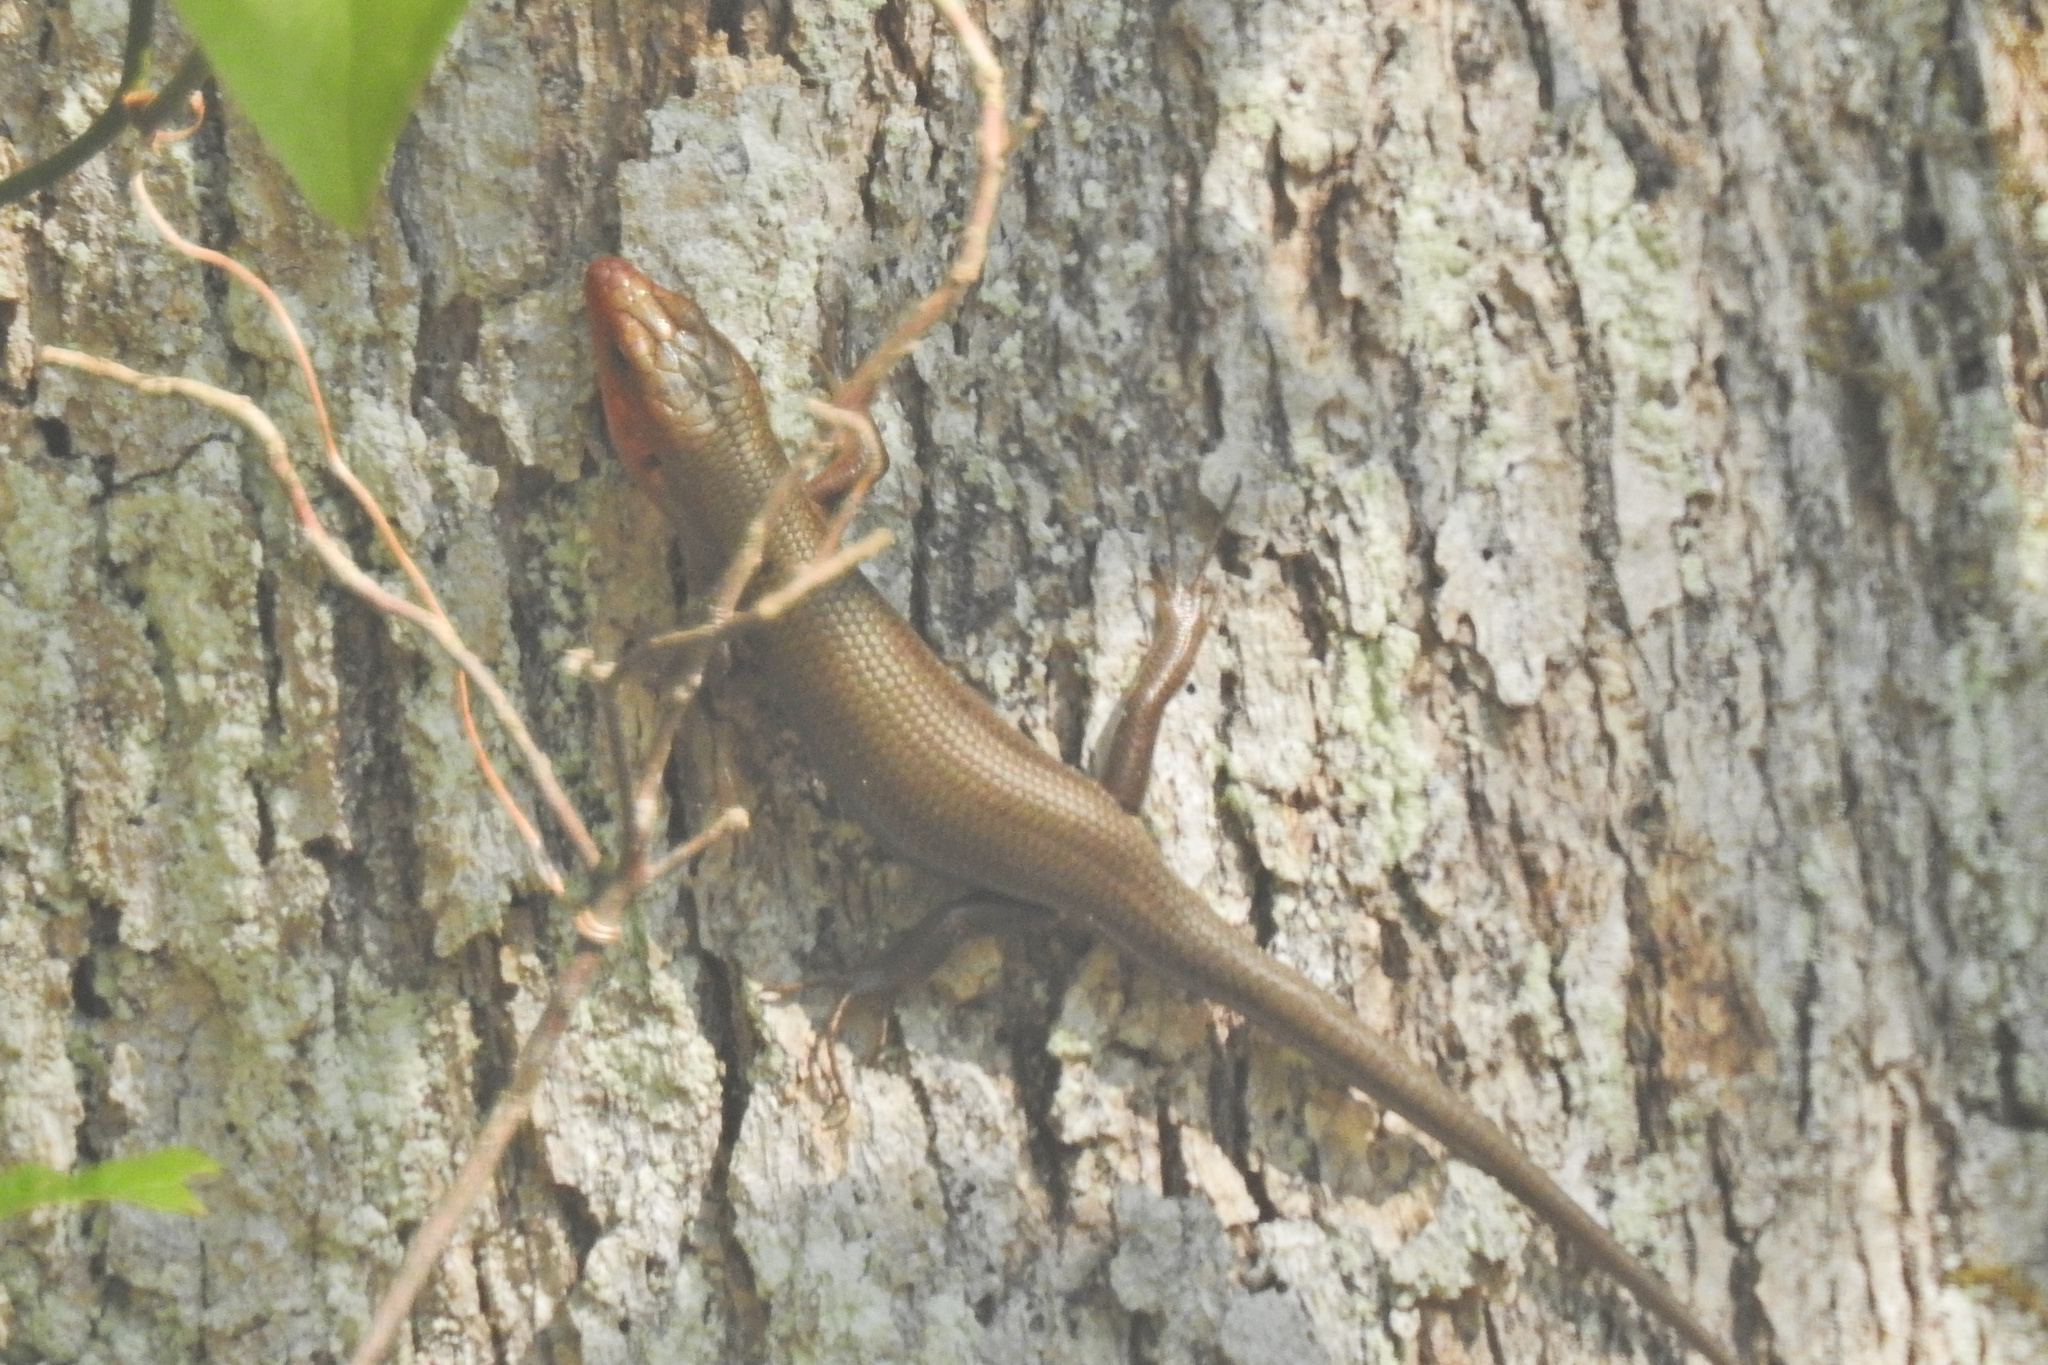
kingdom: Animalia
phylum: Chordata
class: Squamata
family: Scincidae
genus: Plestiodon
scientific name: Plestiodon fasciatus
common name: Five-lined skink
